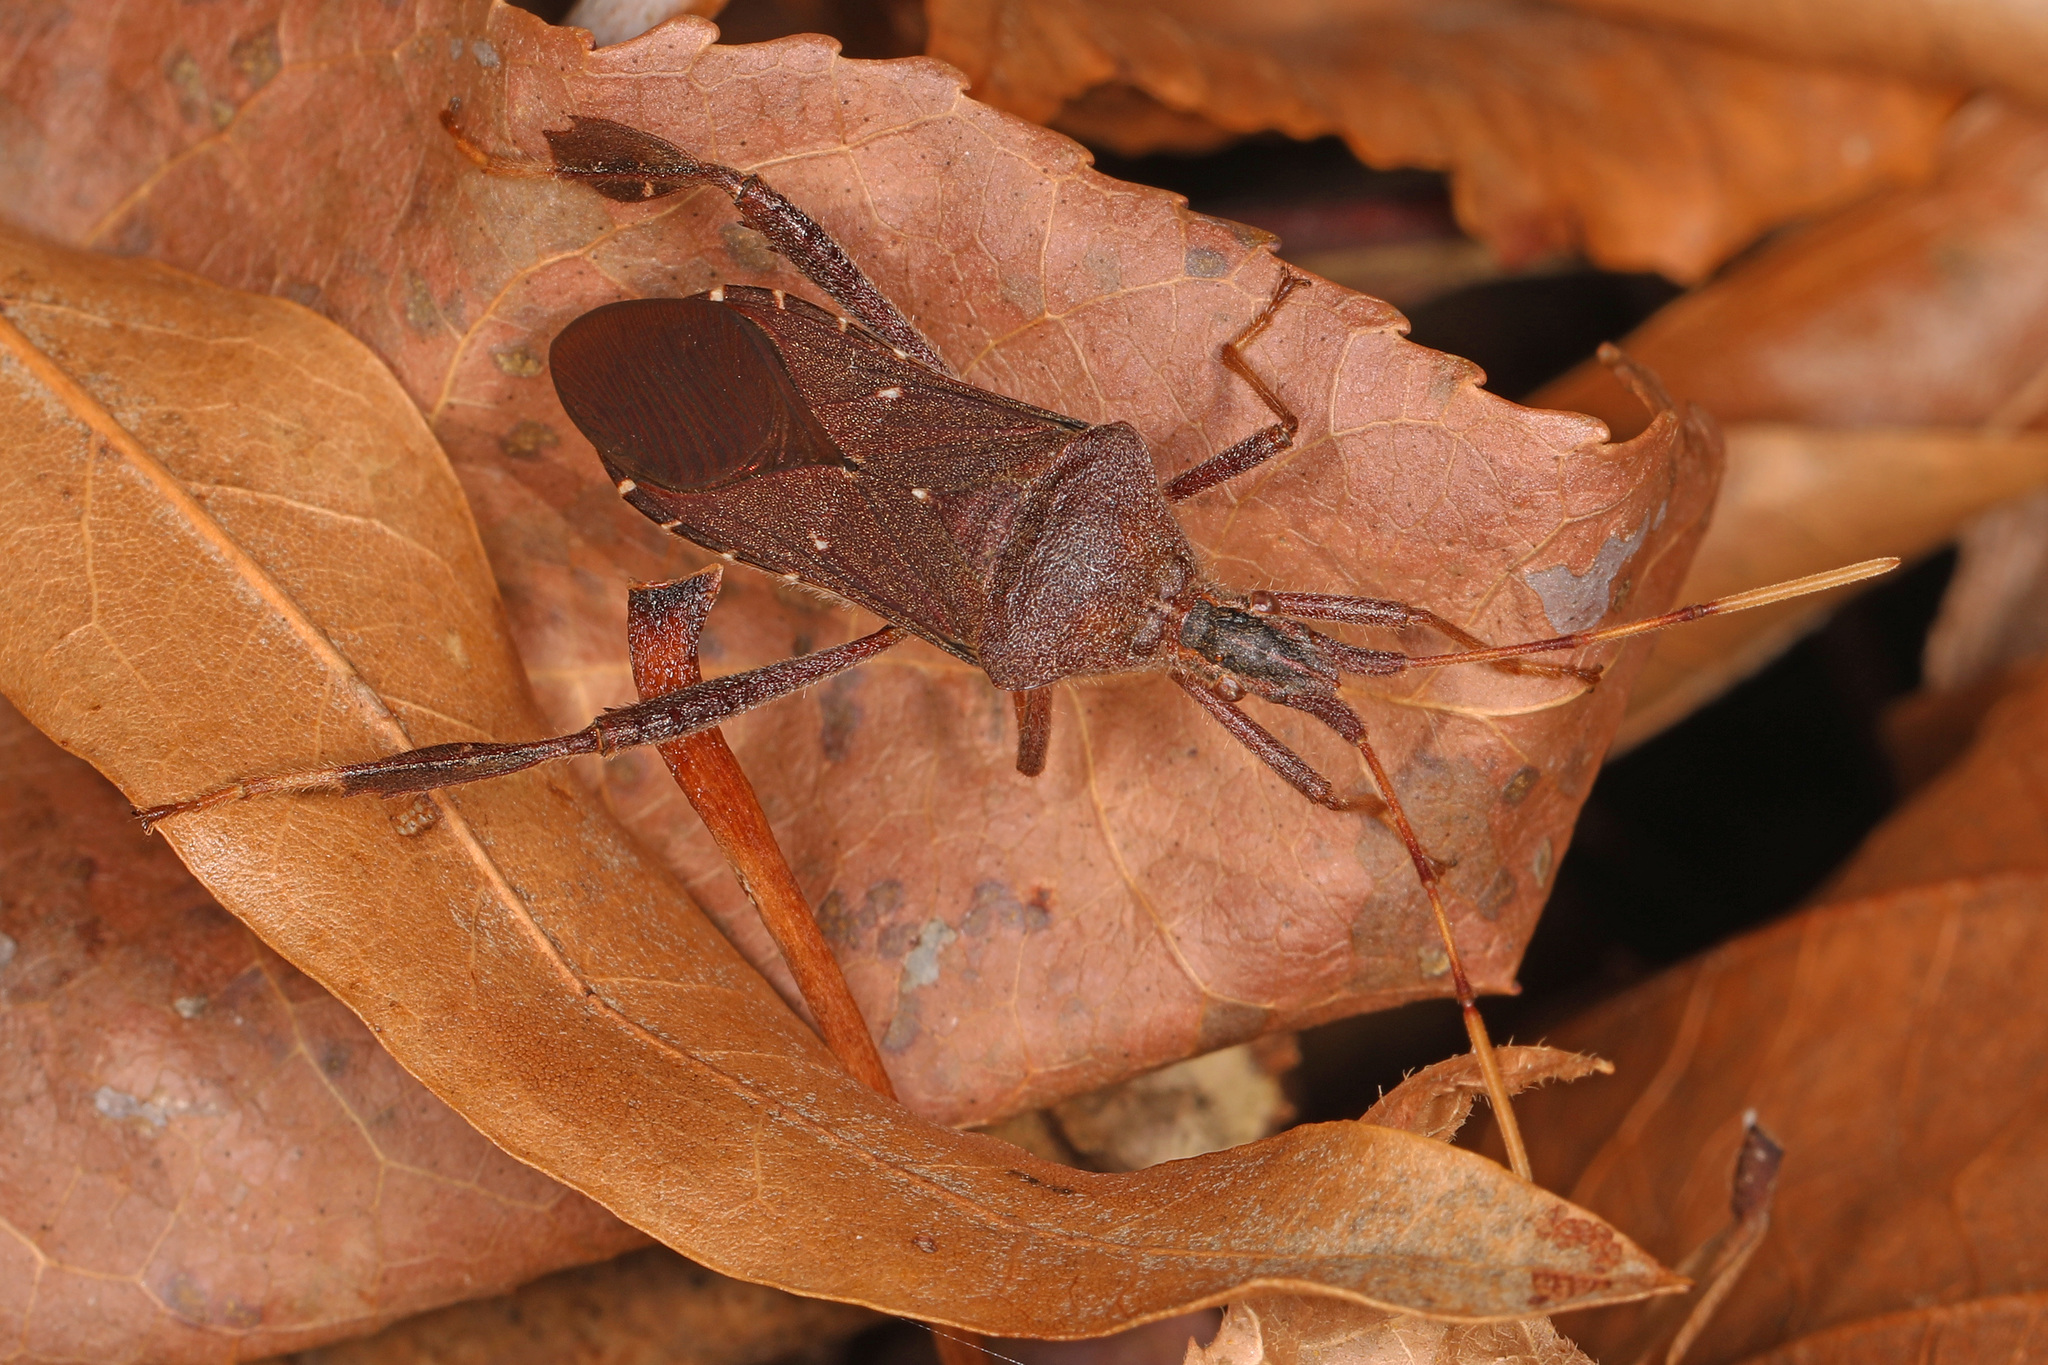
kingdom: Animalia
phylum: Arthropoda
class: Insecta
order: Hemiptera
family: Coreidae
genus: Leptoglossus
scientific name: Leptoglossus oppositus
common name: Northern leaf-footed bug
